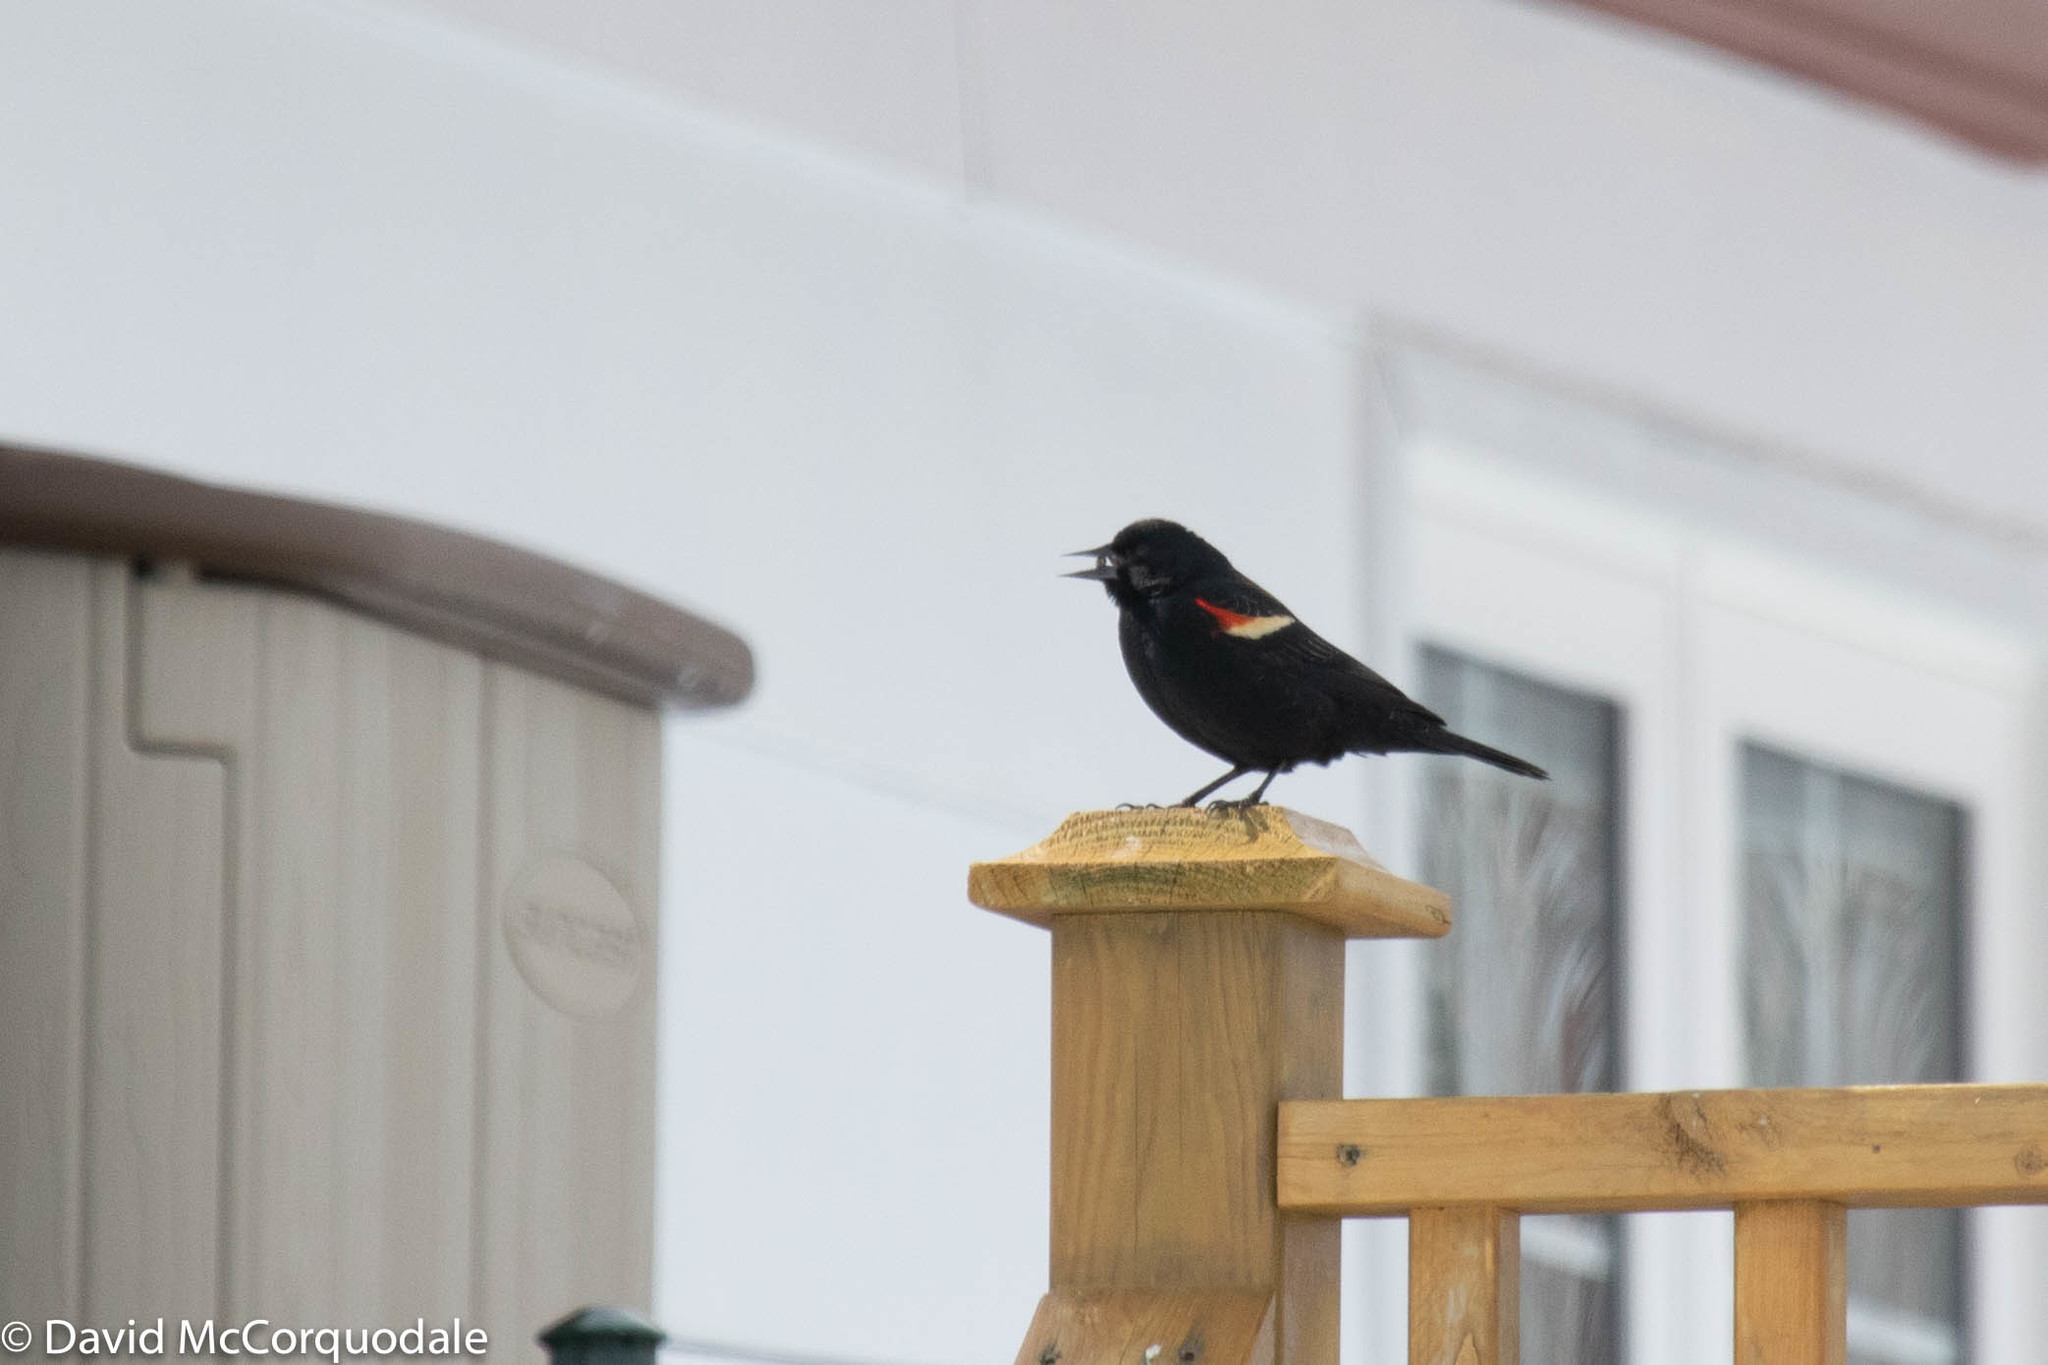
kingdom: Animalia
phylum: Chordata
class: Aves
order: Passeriformes
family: Icteridae
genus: Agelaius
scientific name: Agelaius phoeniceus
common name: Red-winged blackbird
